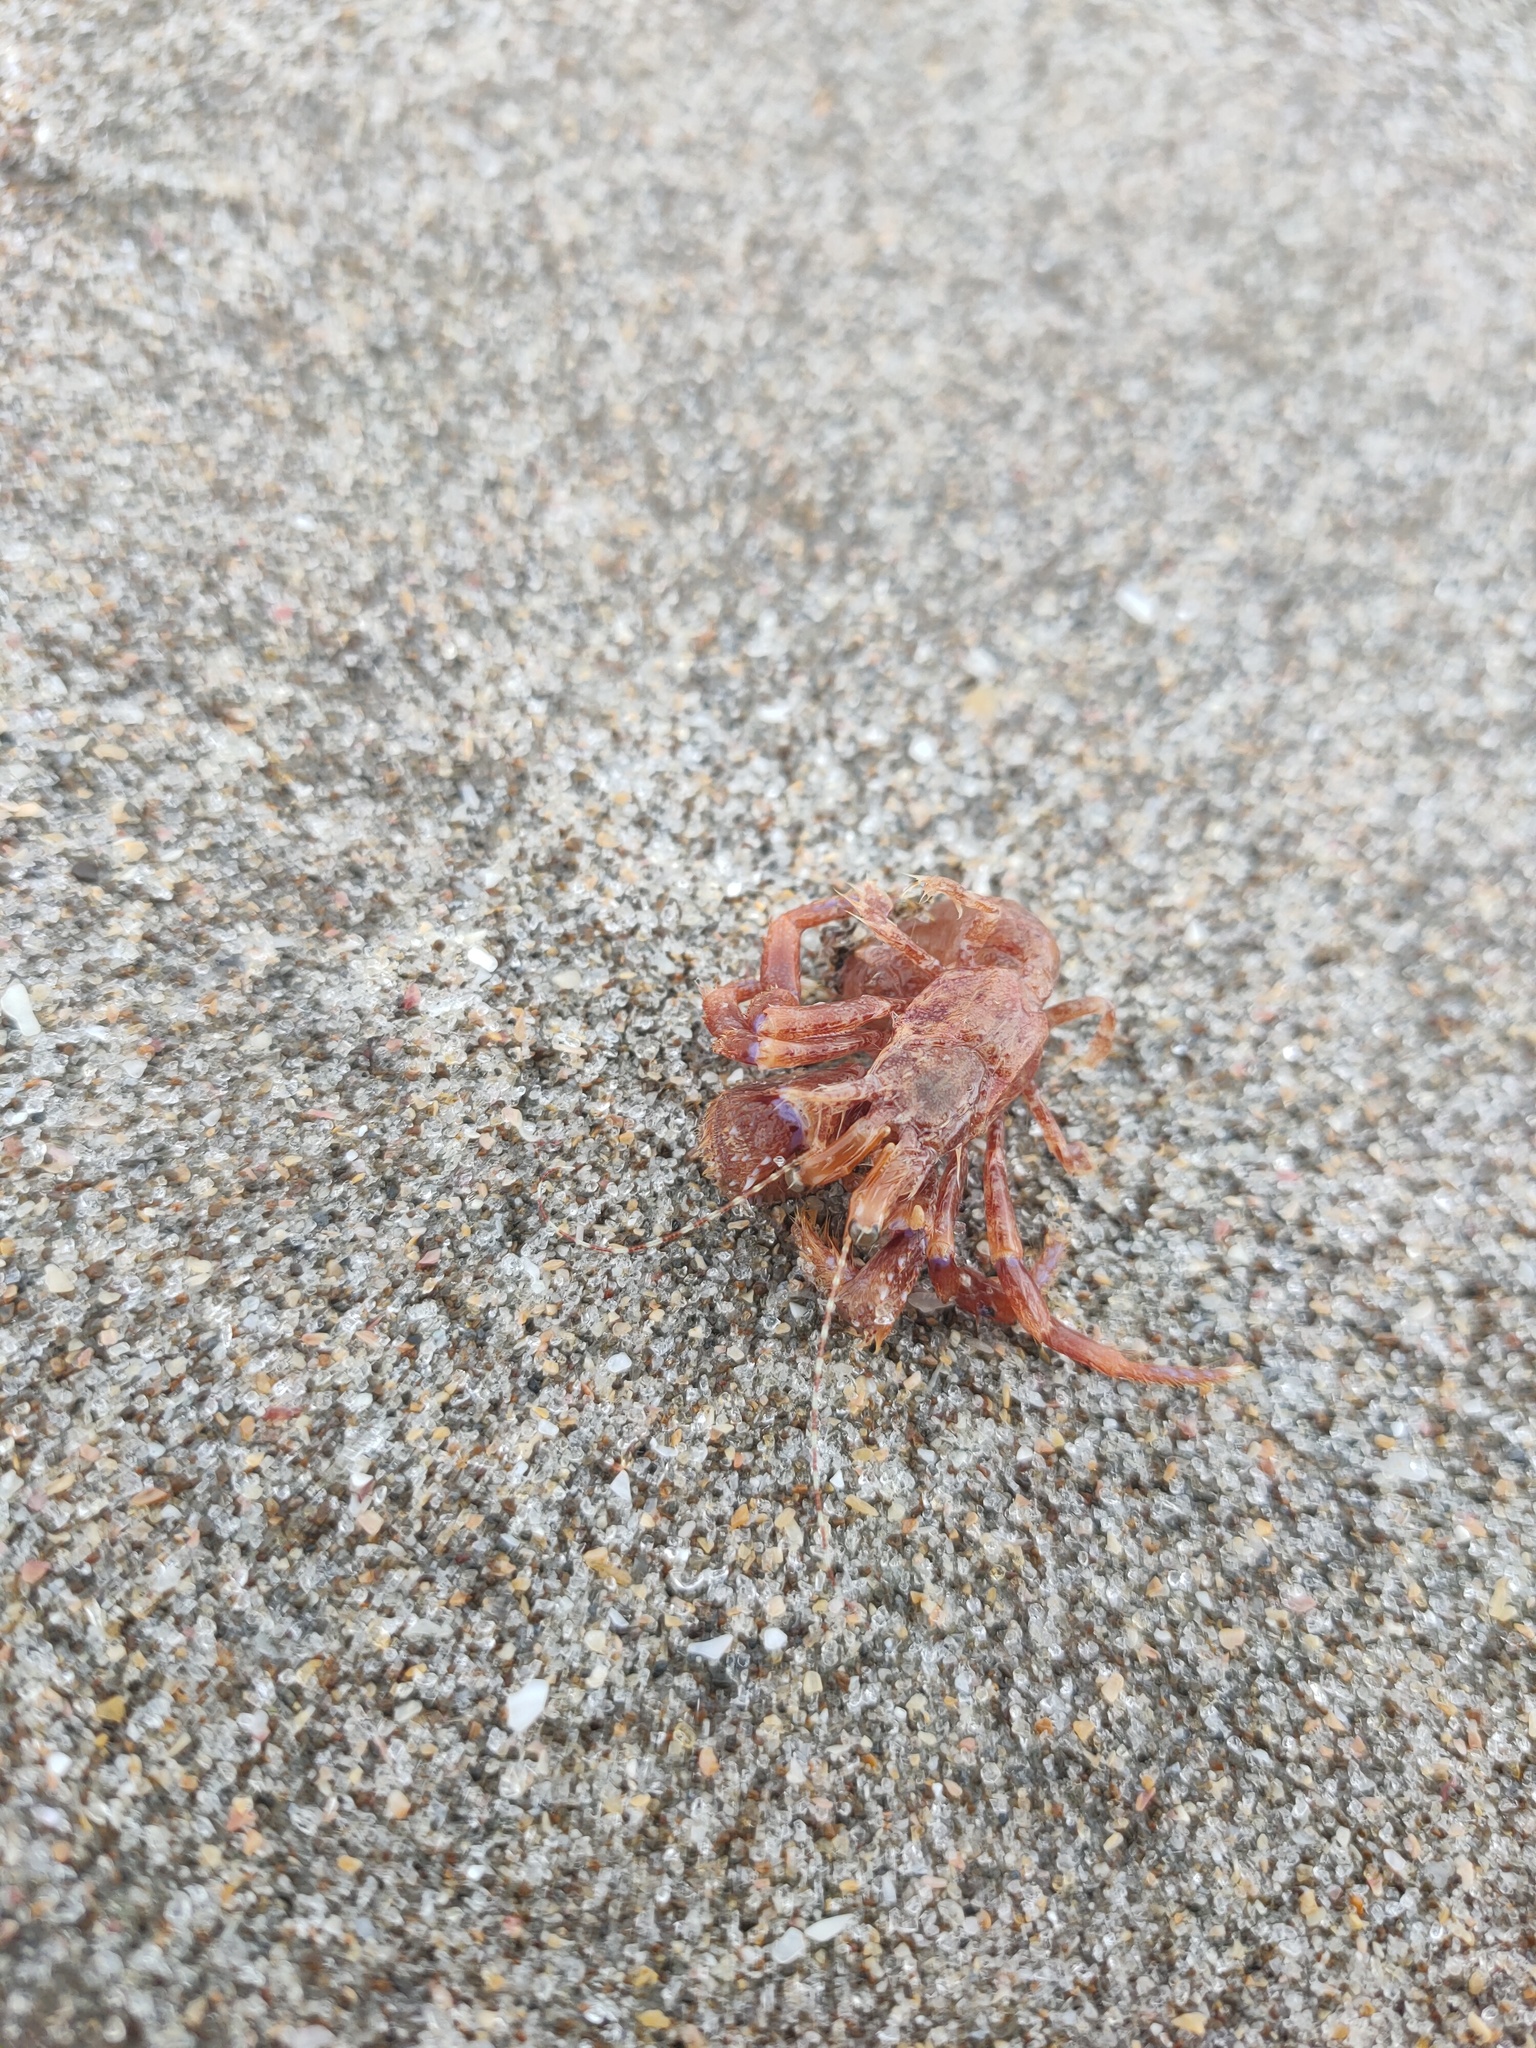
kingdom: Animalia
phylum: Arthropoda
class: Malacostraca
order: Decapoda
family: Paguridae
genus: Diacanthurus
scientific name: Diacanthurus spinulimanus
